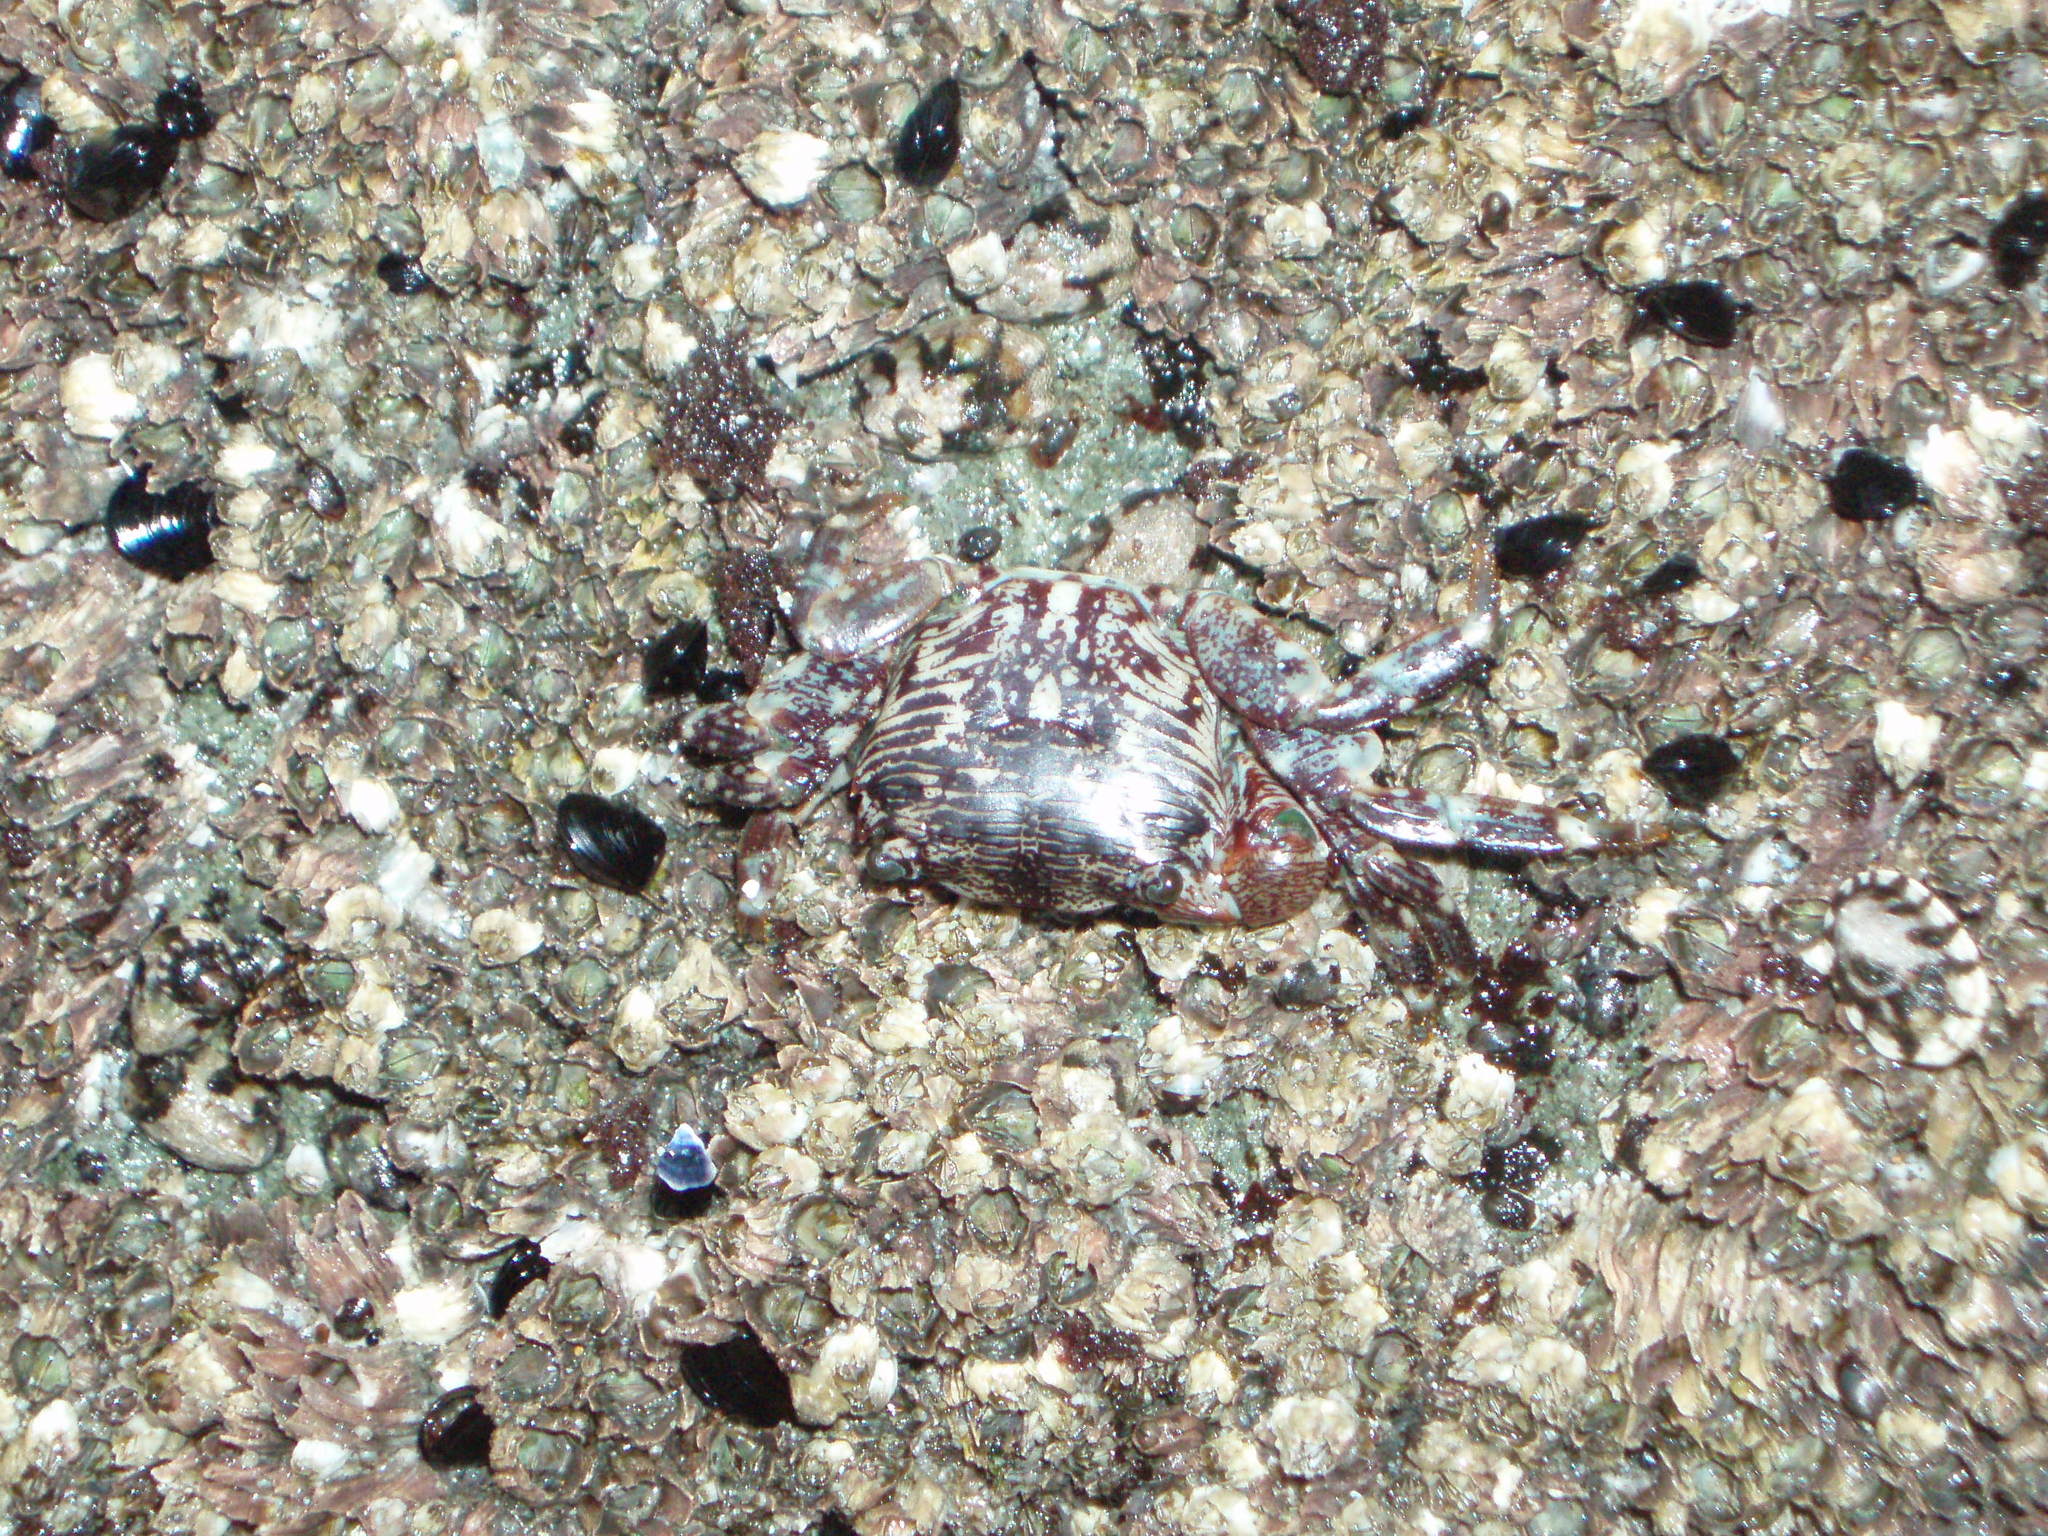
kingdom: Animalia
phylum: Arthropoda
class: Malacostraca
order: Decapoda
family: Grapsidae
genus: Pachygrapsus
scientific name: Pachygrapsus crassipes
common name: Striped shore crab
